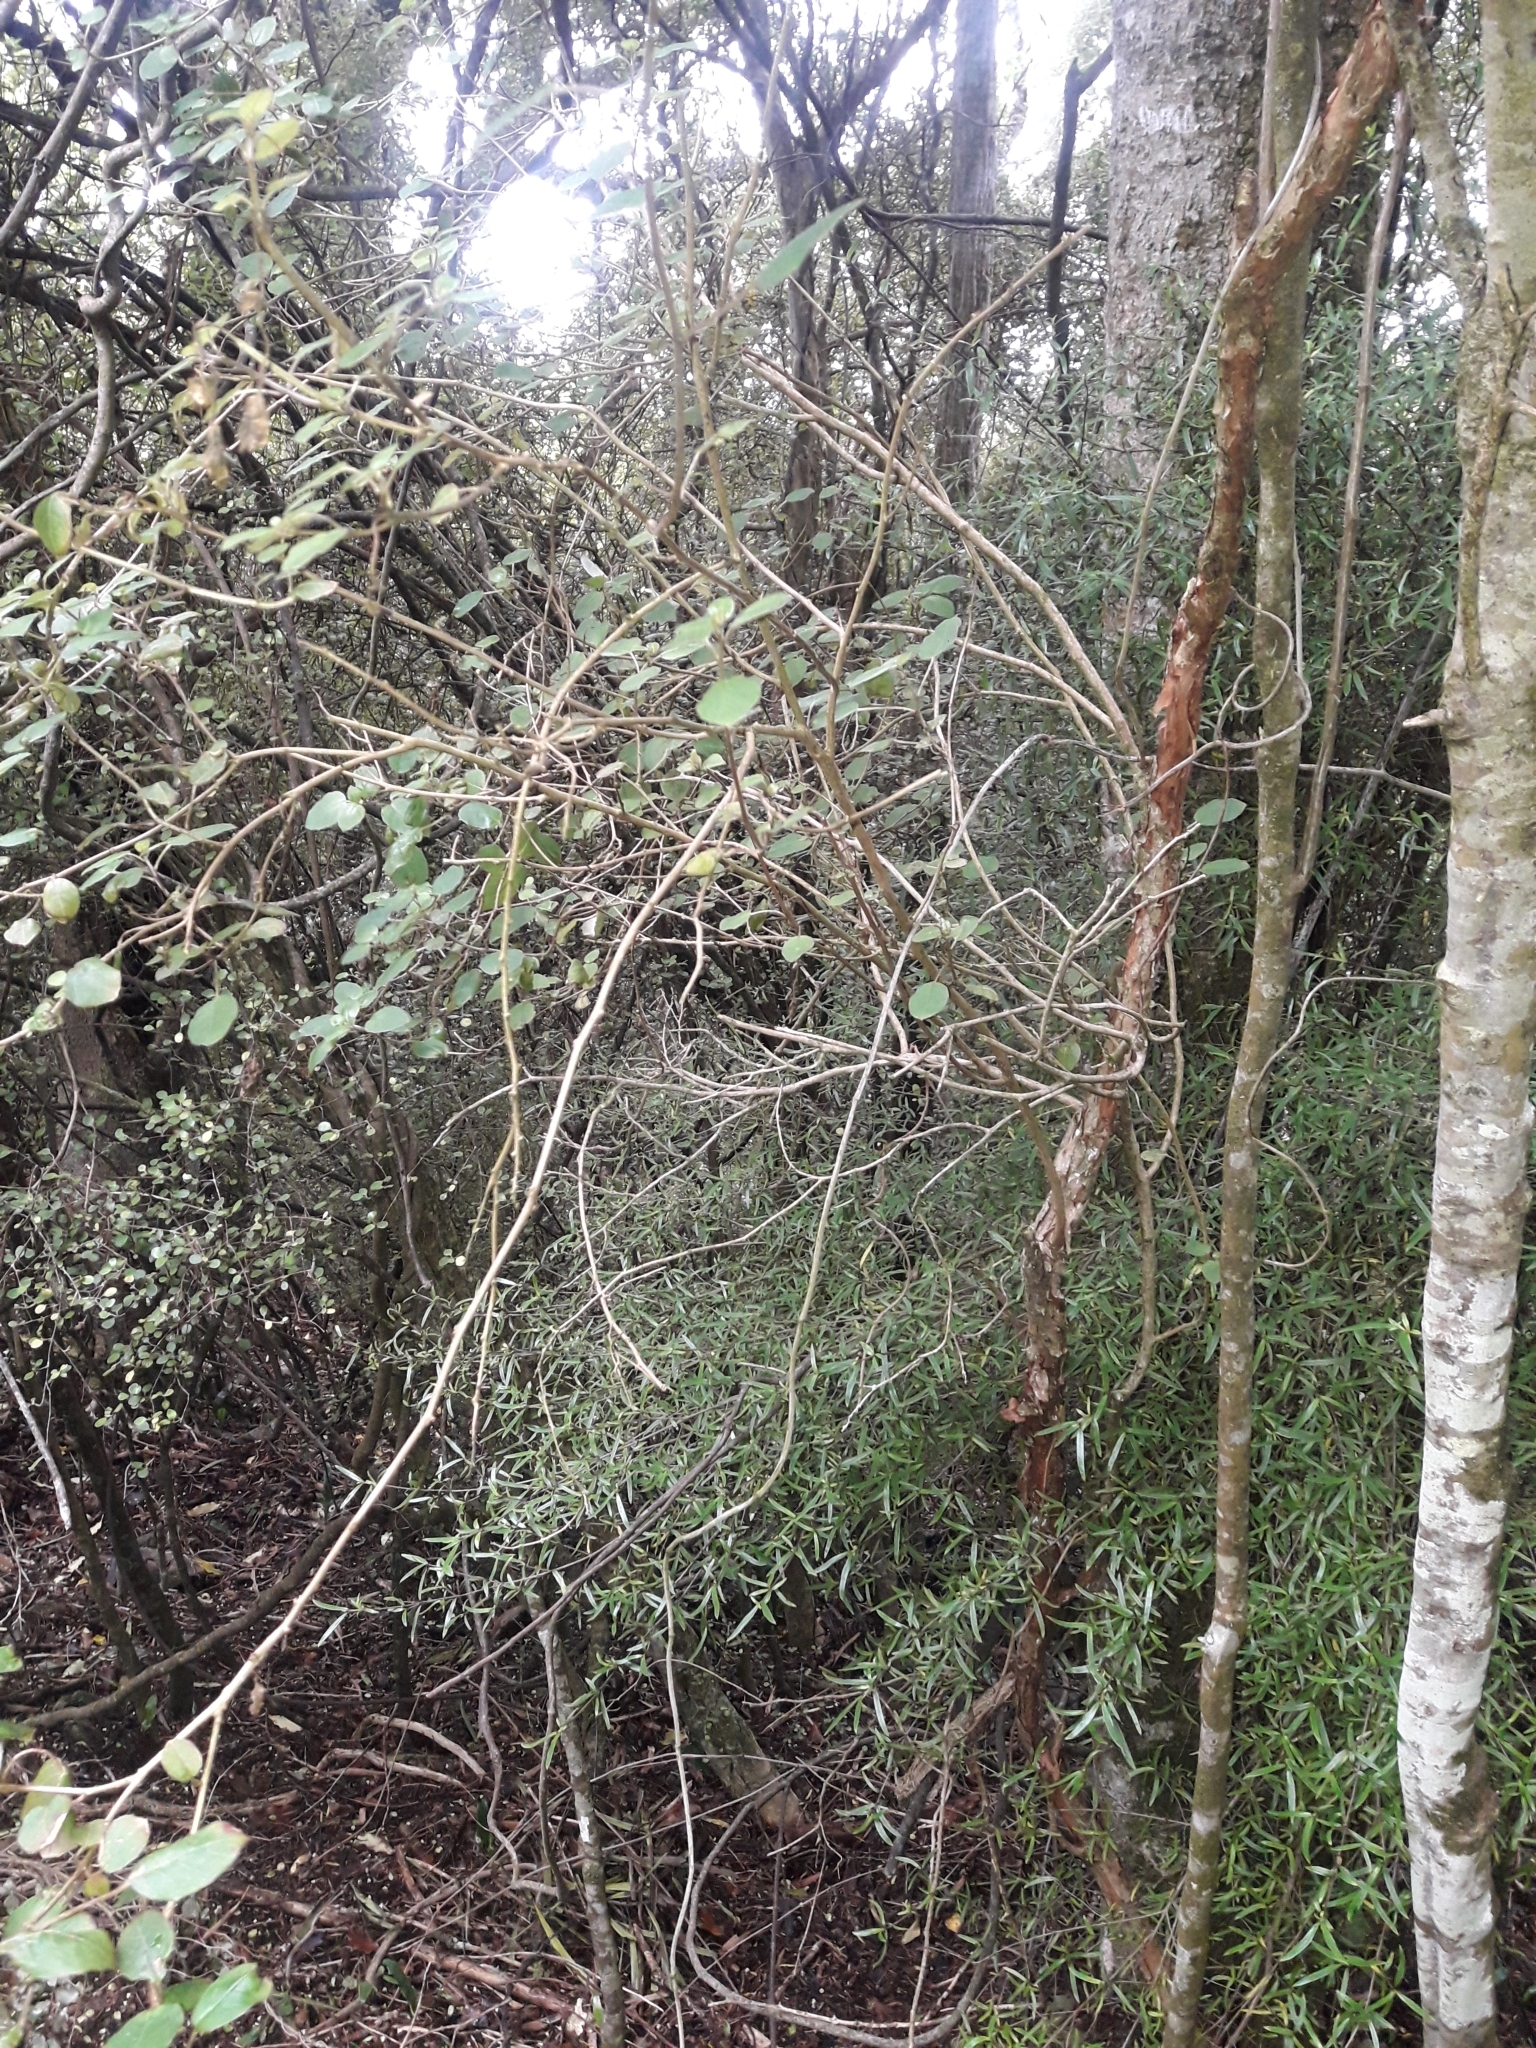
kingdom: Plantae
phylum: Tracheophyta
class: Magnoliopsida
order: Myrtales
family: Onagraceae
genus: Fuchsia
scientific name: Fuchsia perscandens
